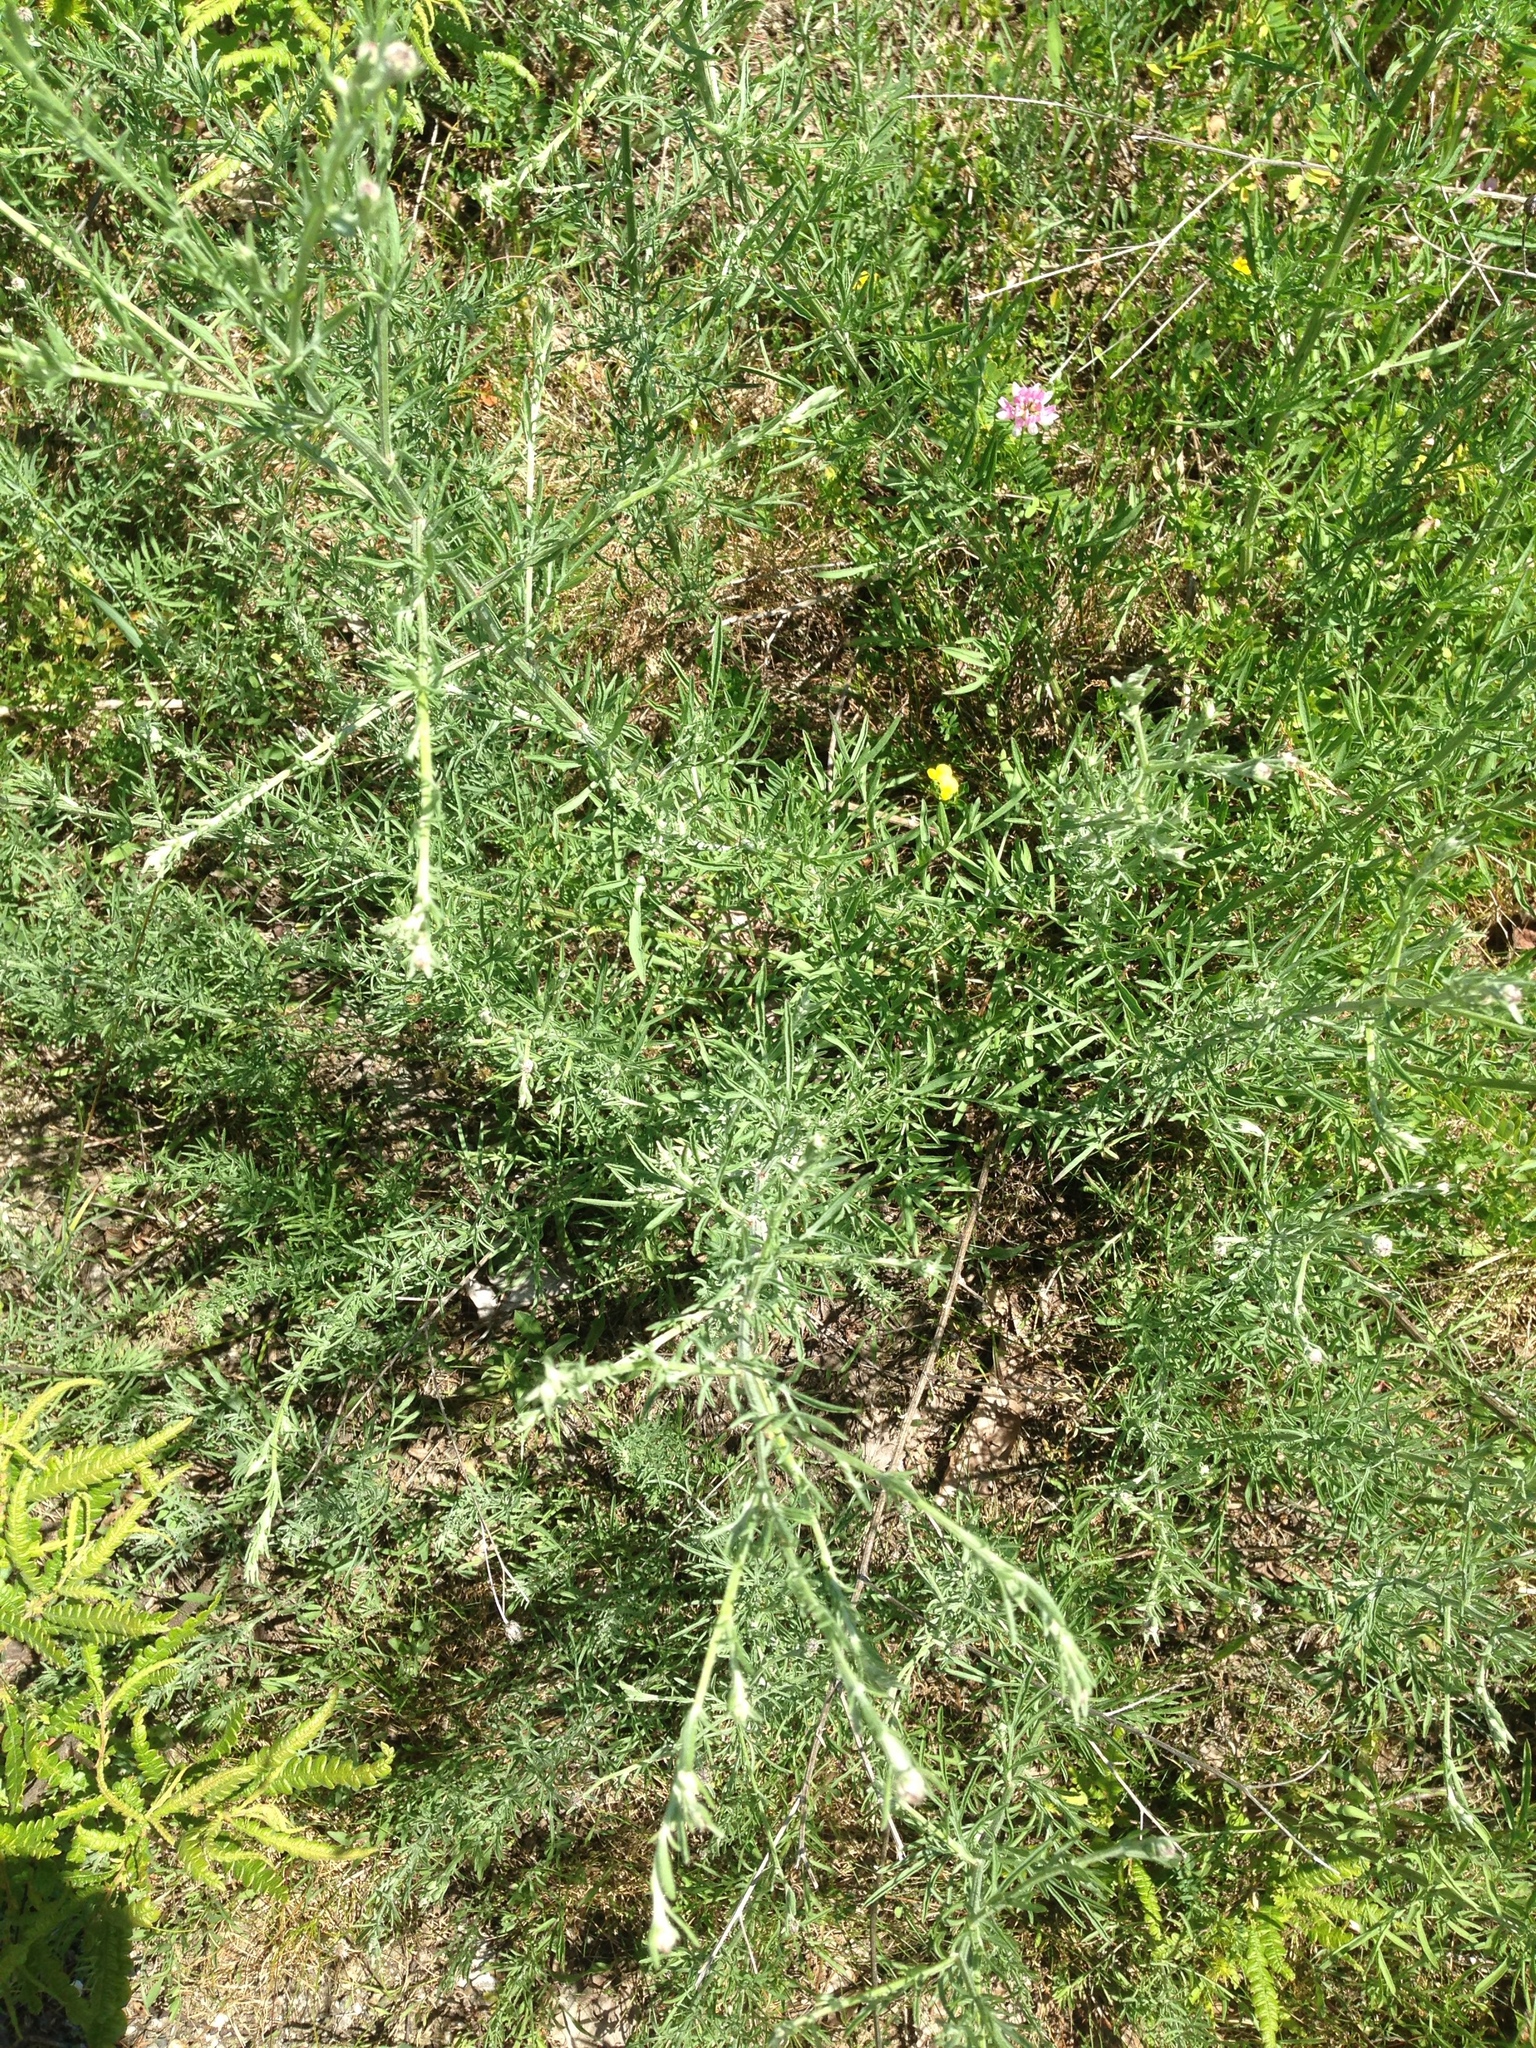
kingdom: Plantae
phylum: Tracheophyta
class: Magnoliopsida
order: Asterales
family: Asteraceae
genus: Centaurea
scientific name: Centaurea stoebe
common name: Spotted knapweed
